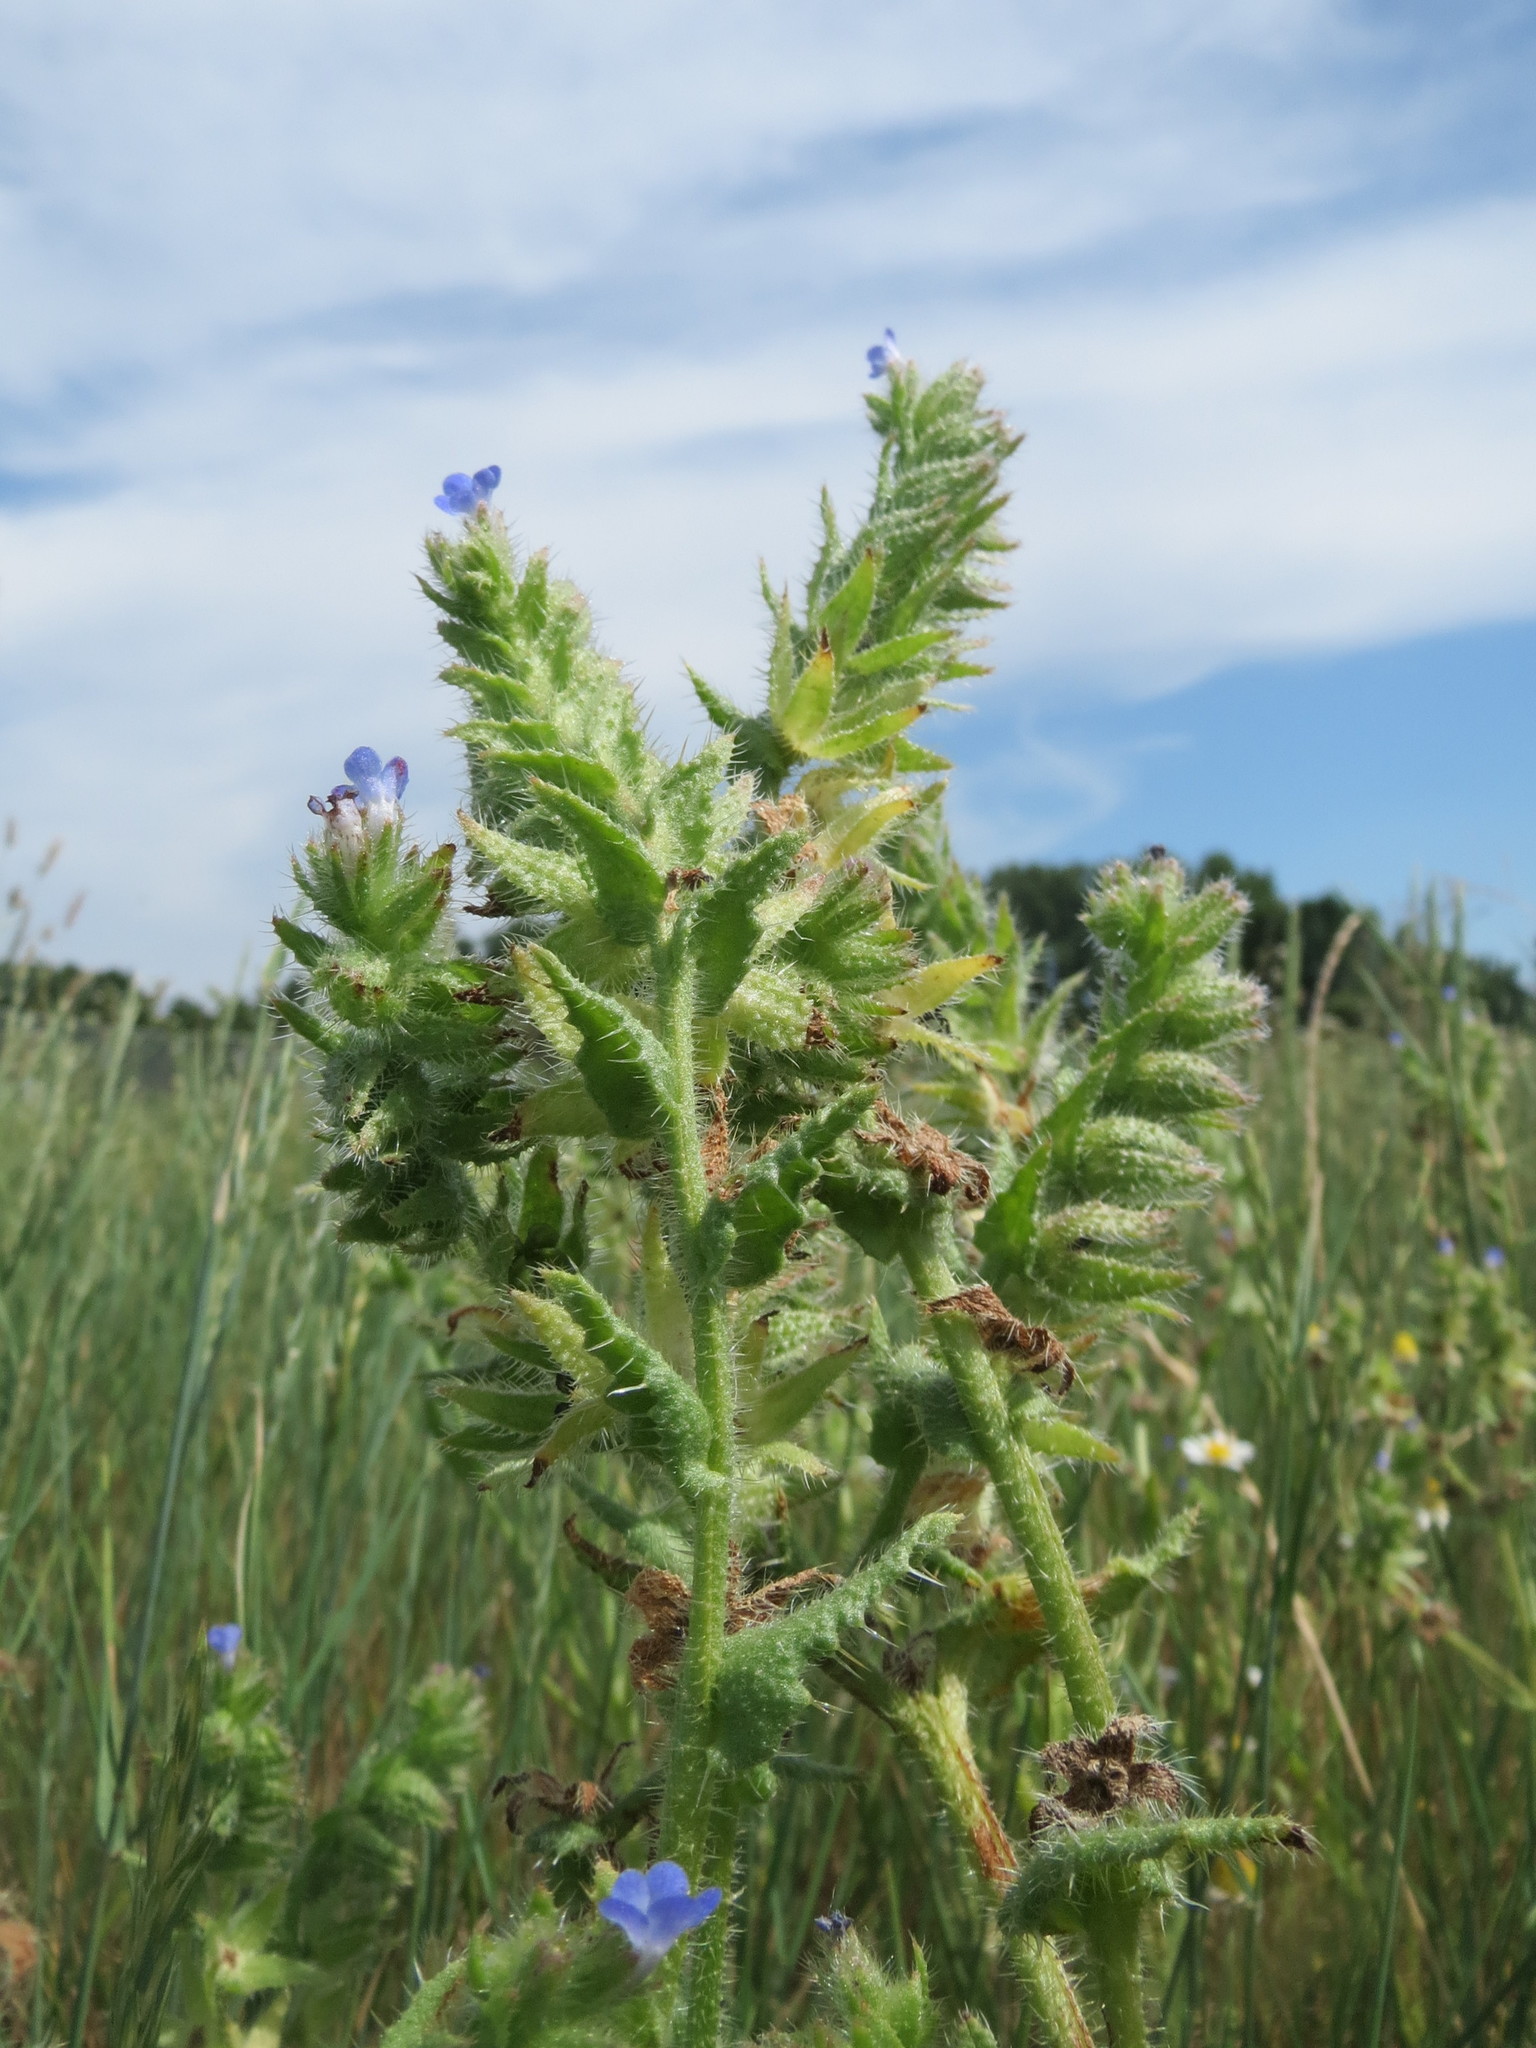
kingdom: Plantae
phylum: Tracheophyta
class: Magnoliopsida
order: Boraginales
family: Boraginaceae
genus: Lycopsis
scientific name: Lycopsis arvensis
